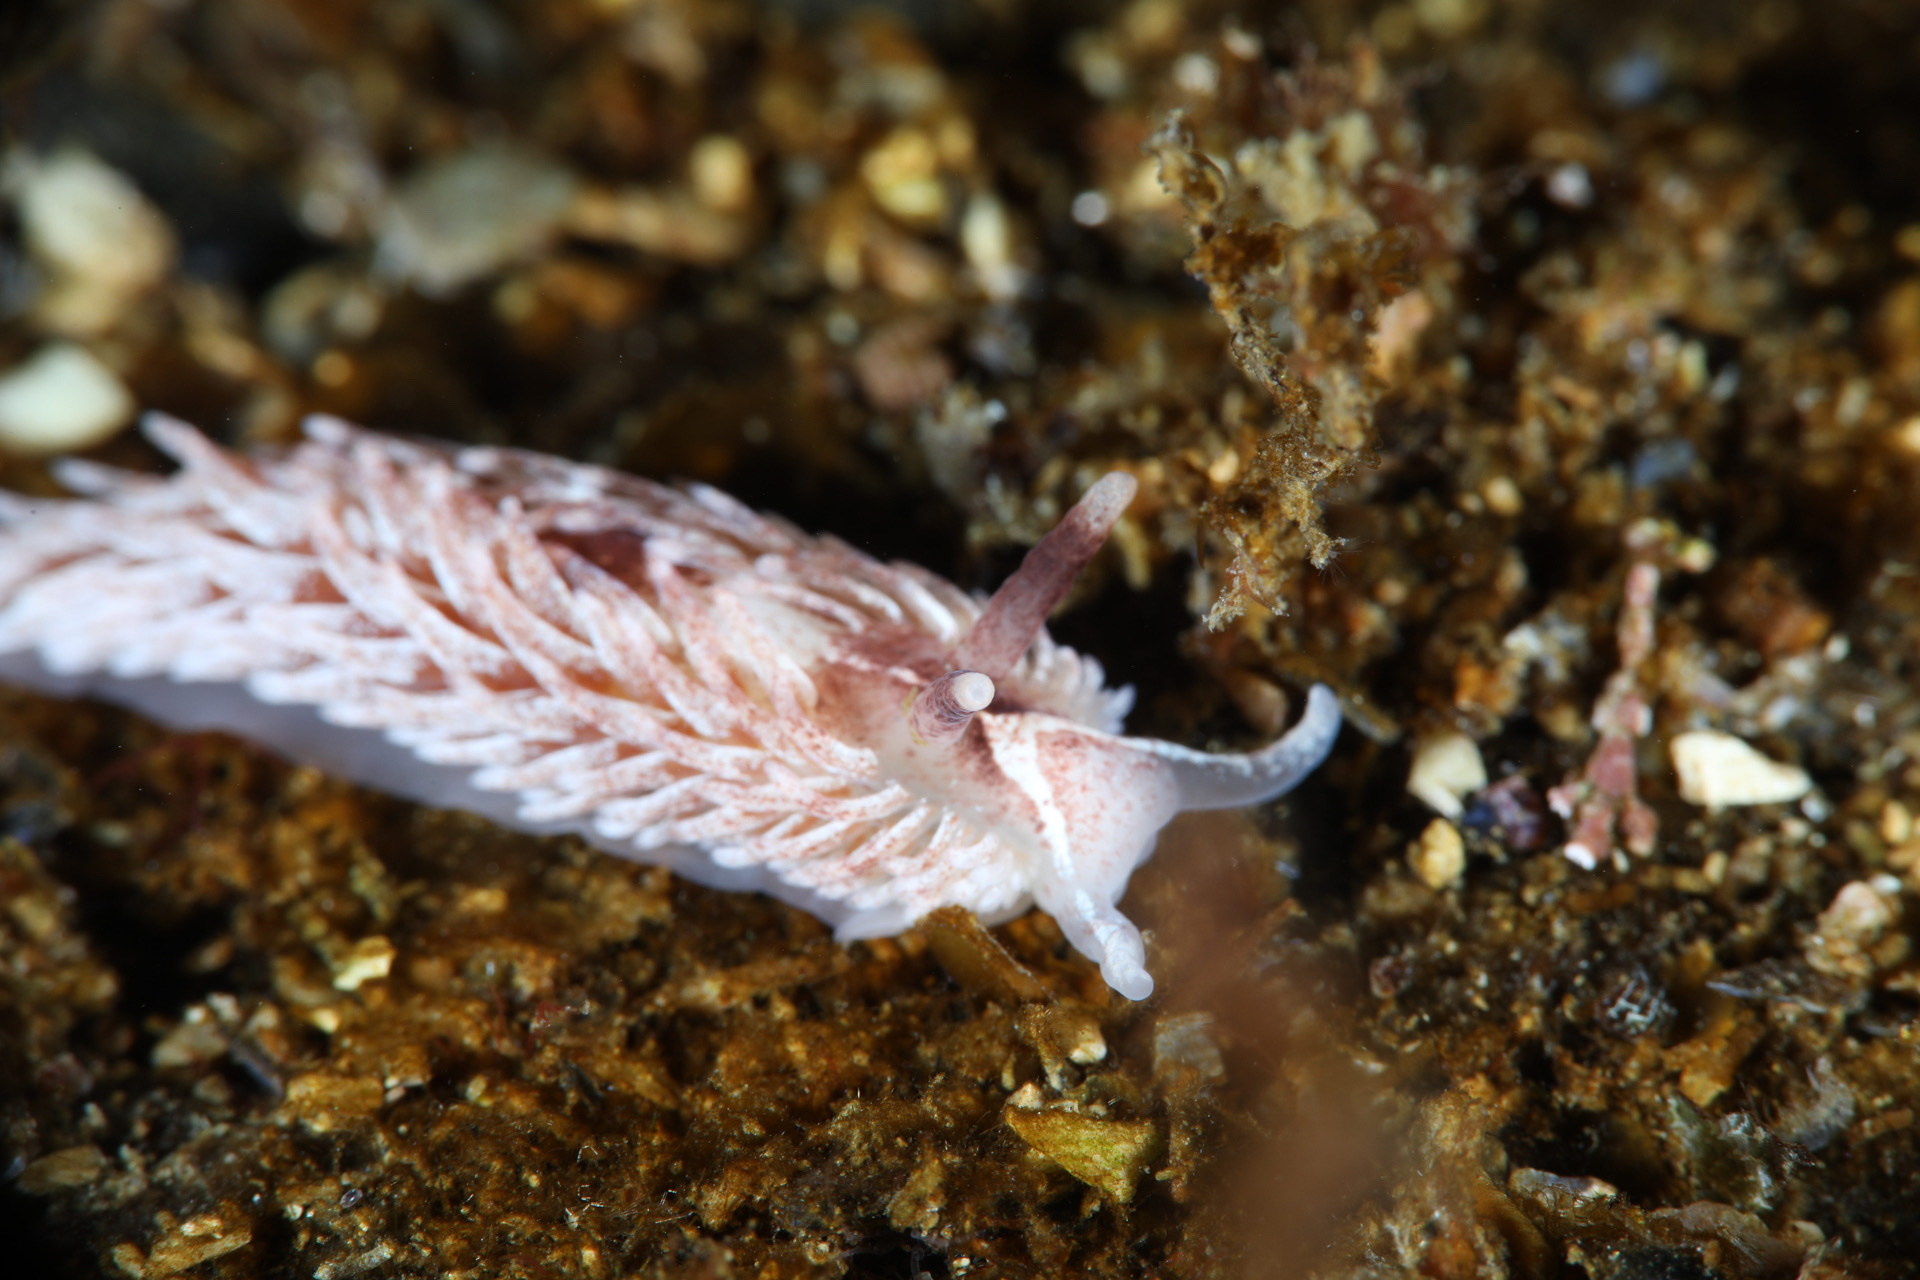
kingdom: Animalia
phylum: Mollusca
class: Gastropoda
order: Nudibranchia
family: Aeolidiidae
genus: Aeolidia
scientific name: Aeolidia filomenae
